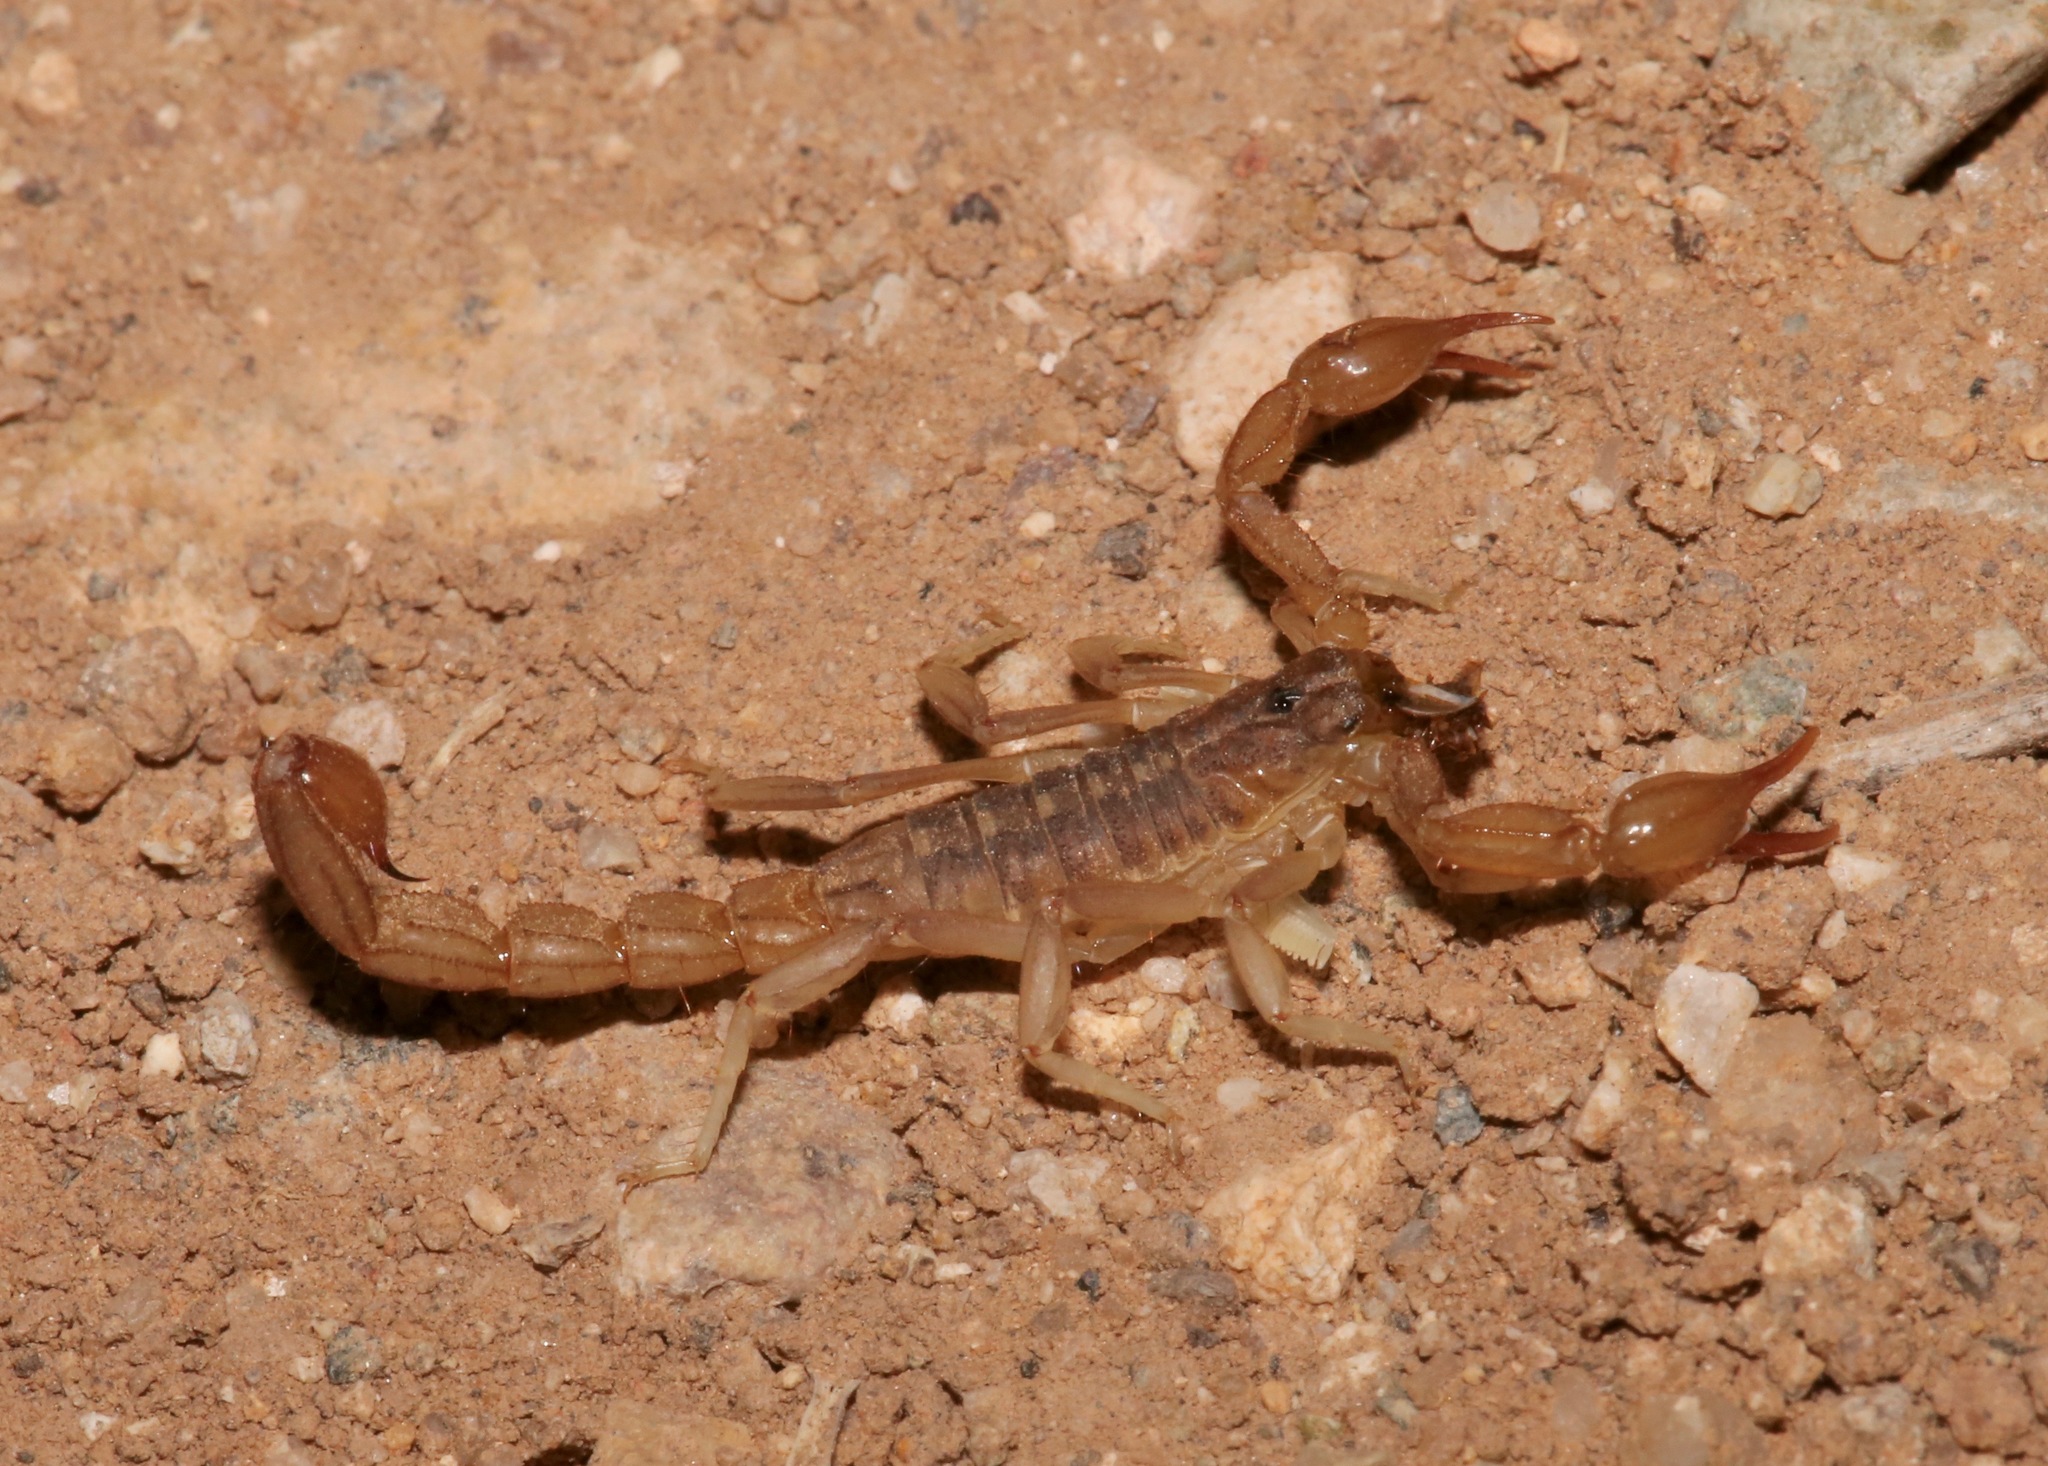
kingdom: Animalia
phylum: Arthropoda
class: Arachnida
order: Scorpiones
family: Vaejovidae
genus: Chihuahuanus
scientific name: Chihuahuanus coahuilae
